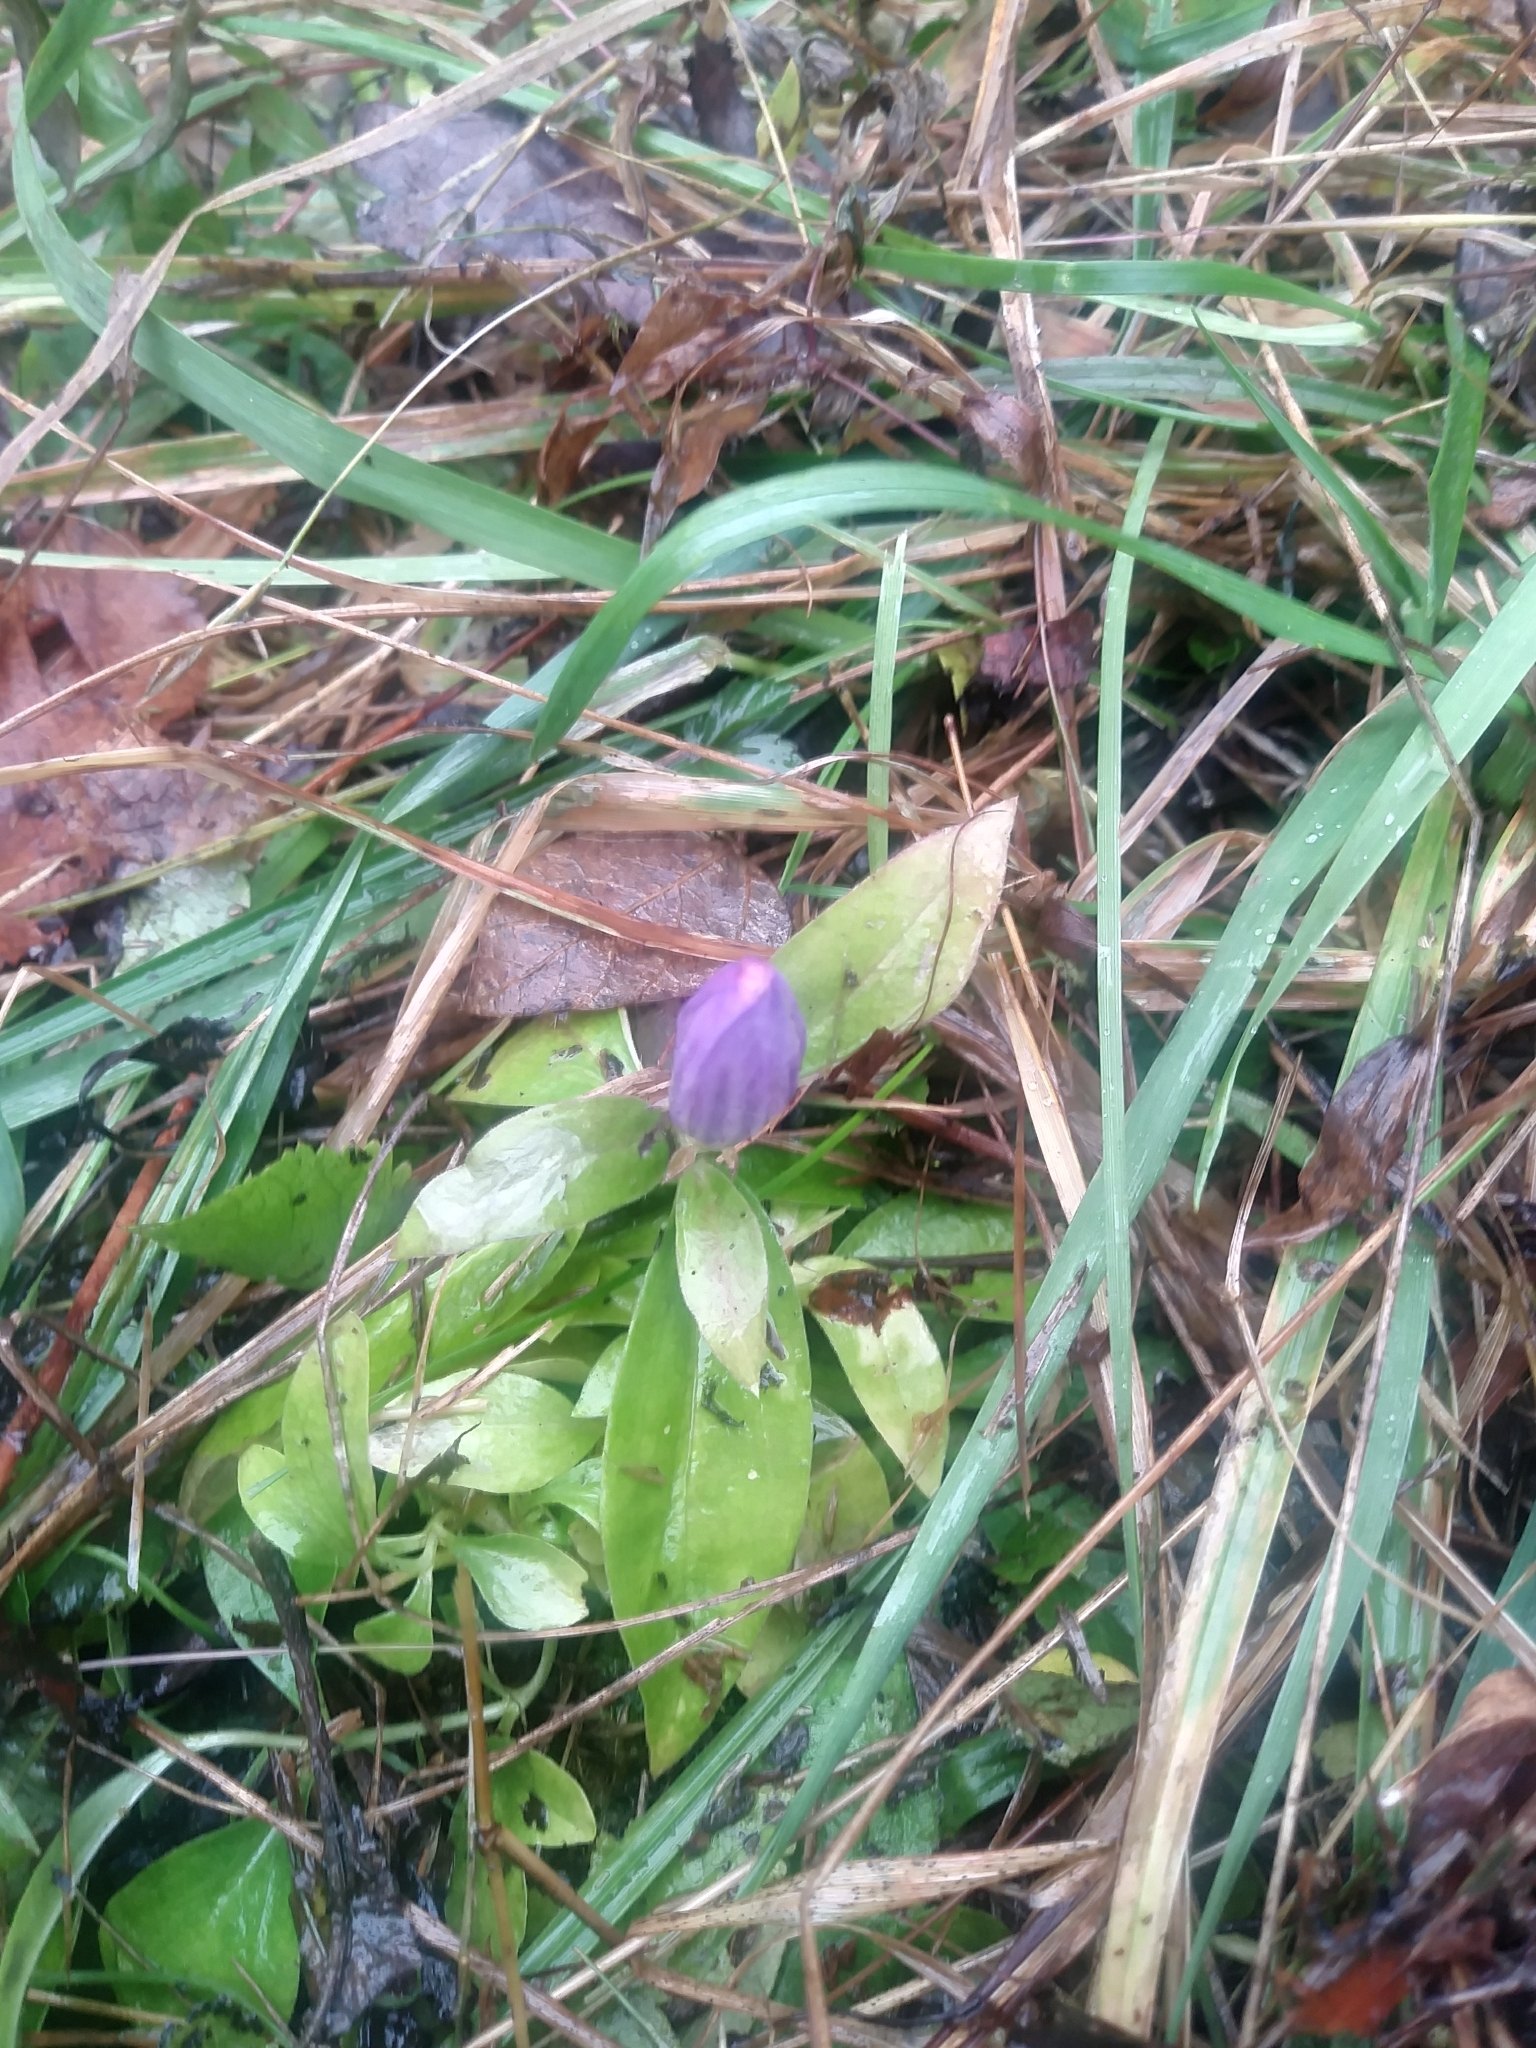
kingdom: Plantae
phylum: Tracheophyta
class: Magnoliopsida
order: Gentianales
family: Gentianaceae
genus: Gentiana
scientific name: Gentiana andrewsii
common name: Bottle gentian
